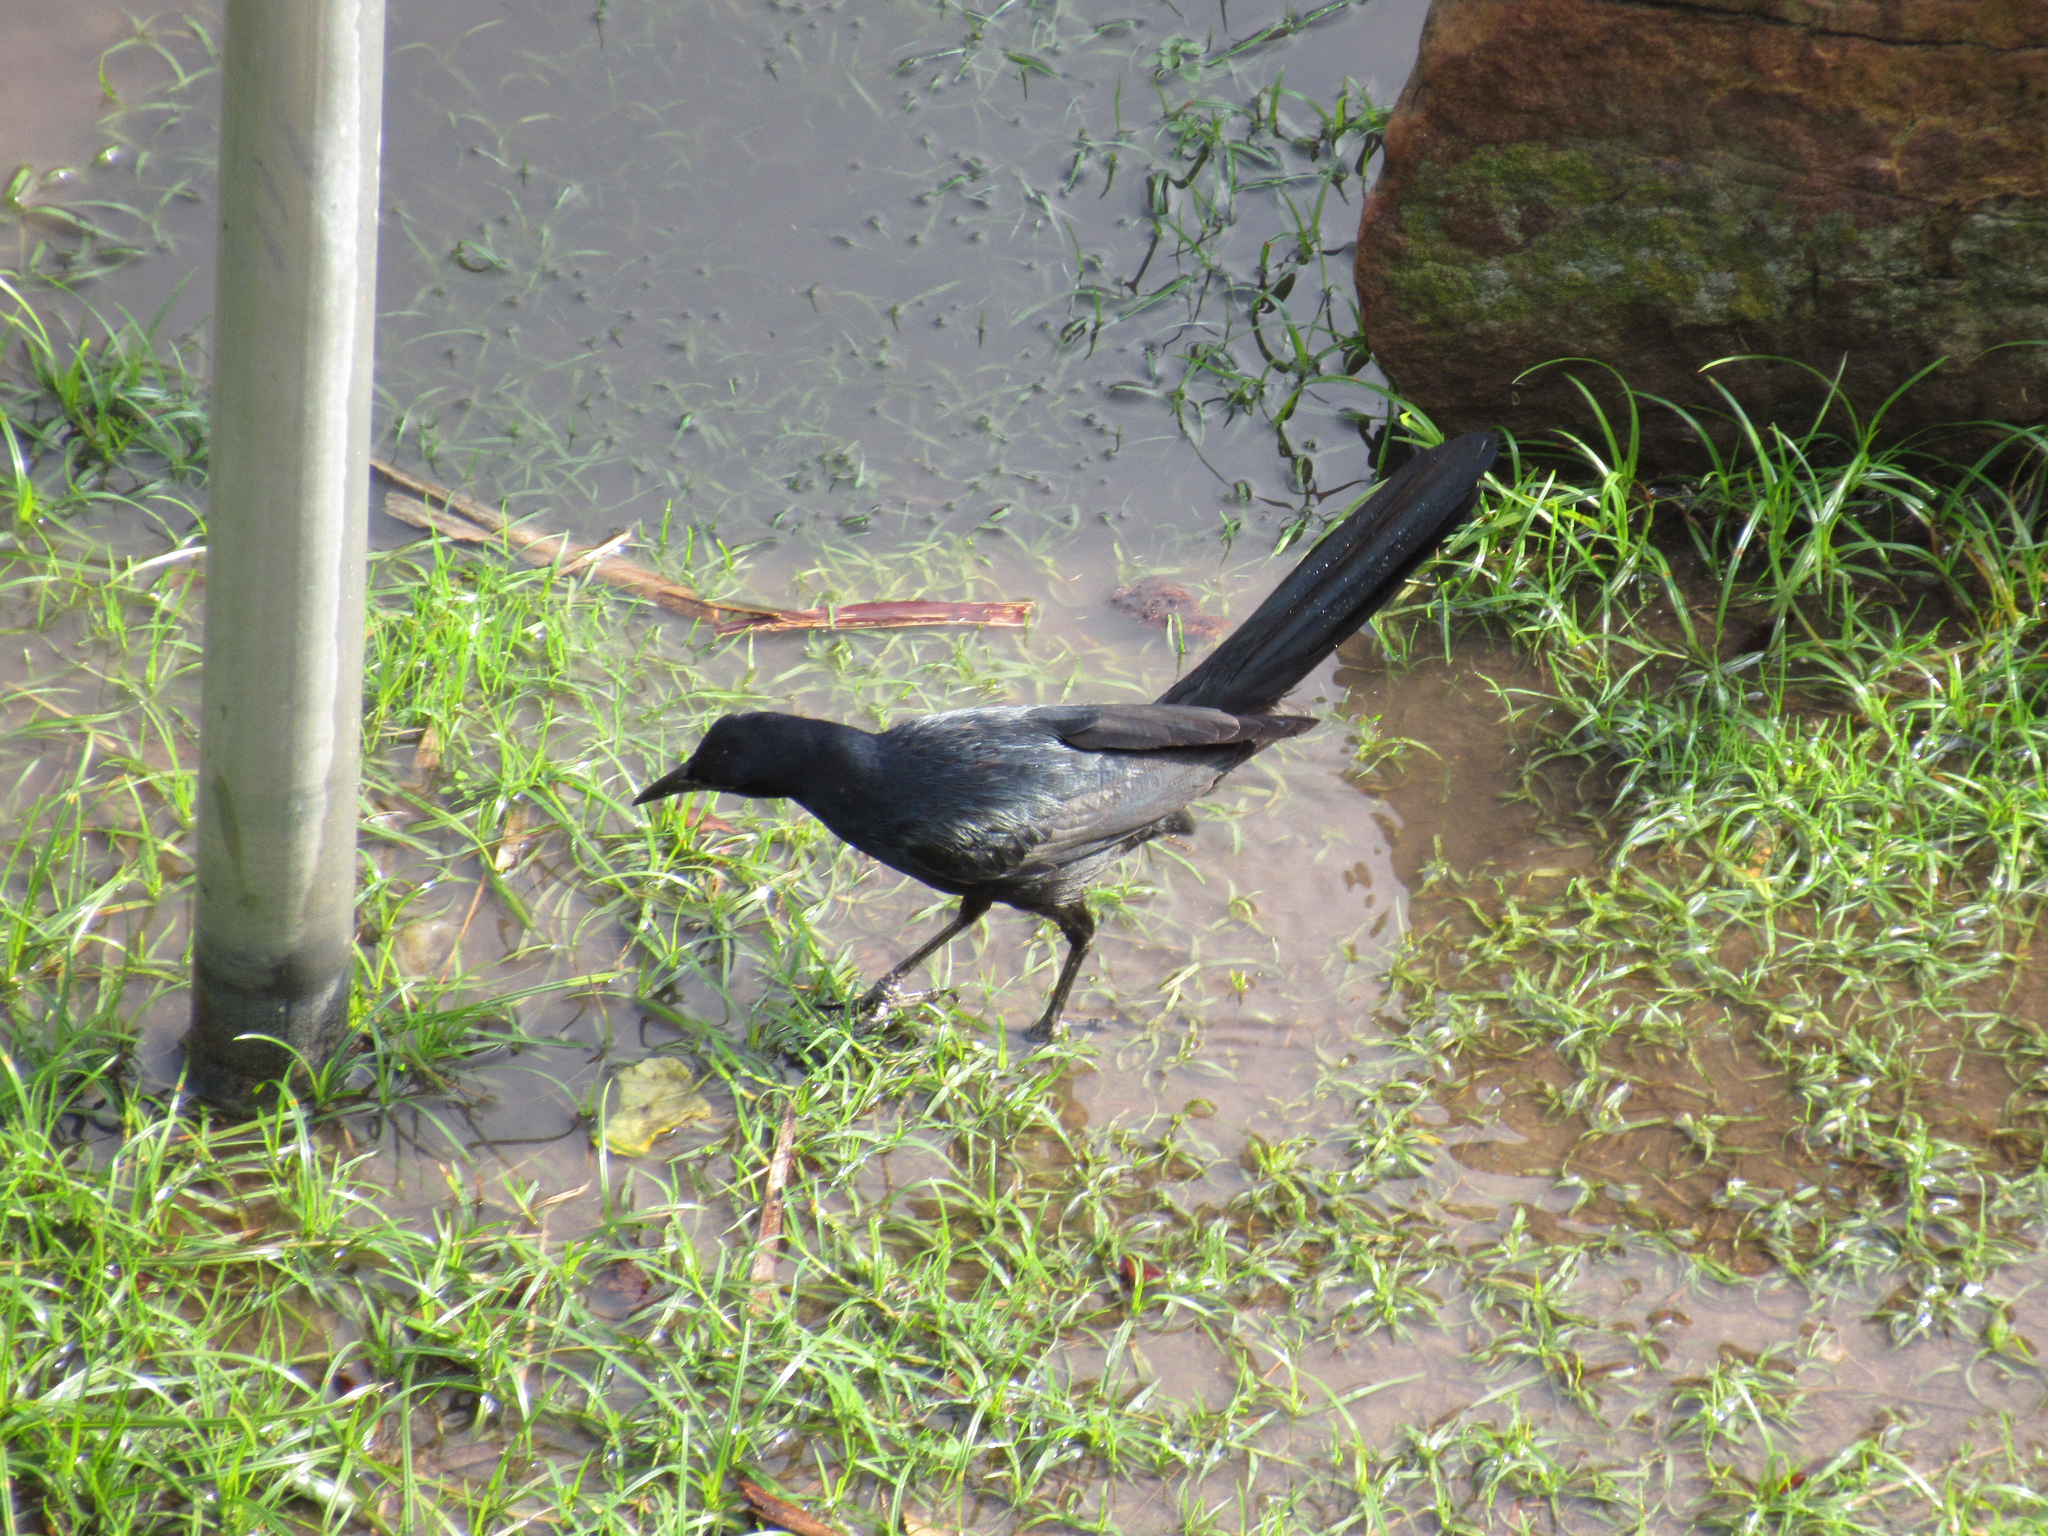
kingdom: Animalia
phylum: Chordata
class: Aves
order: Passeriformes
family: Icteridae
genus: Quiscalus
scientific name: Quiscalus mexicanus
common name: Great-tailed grackle
